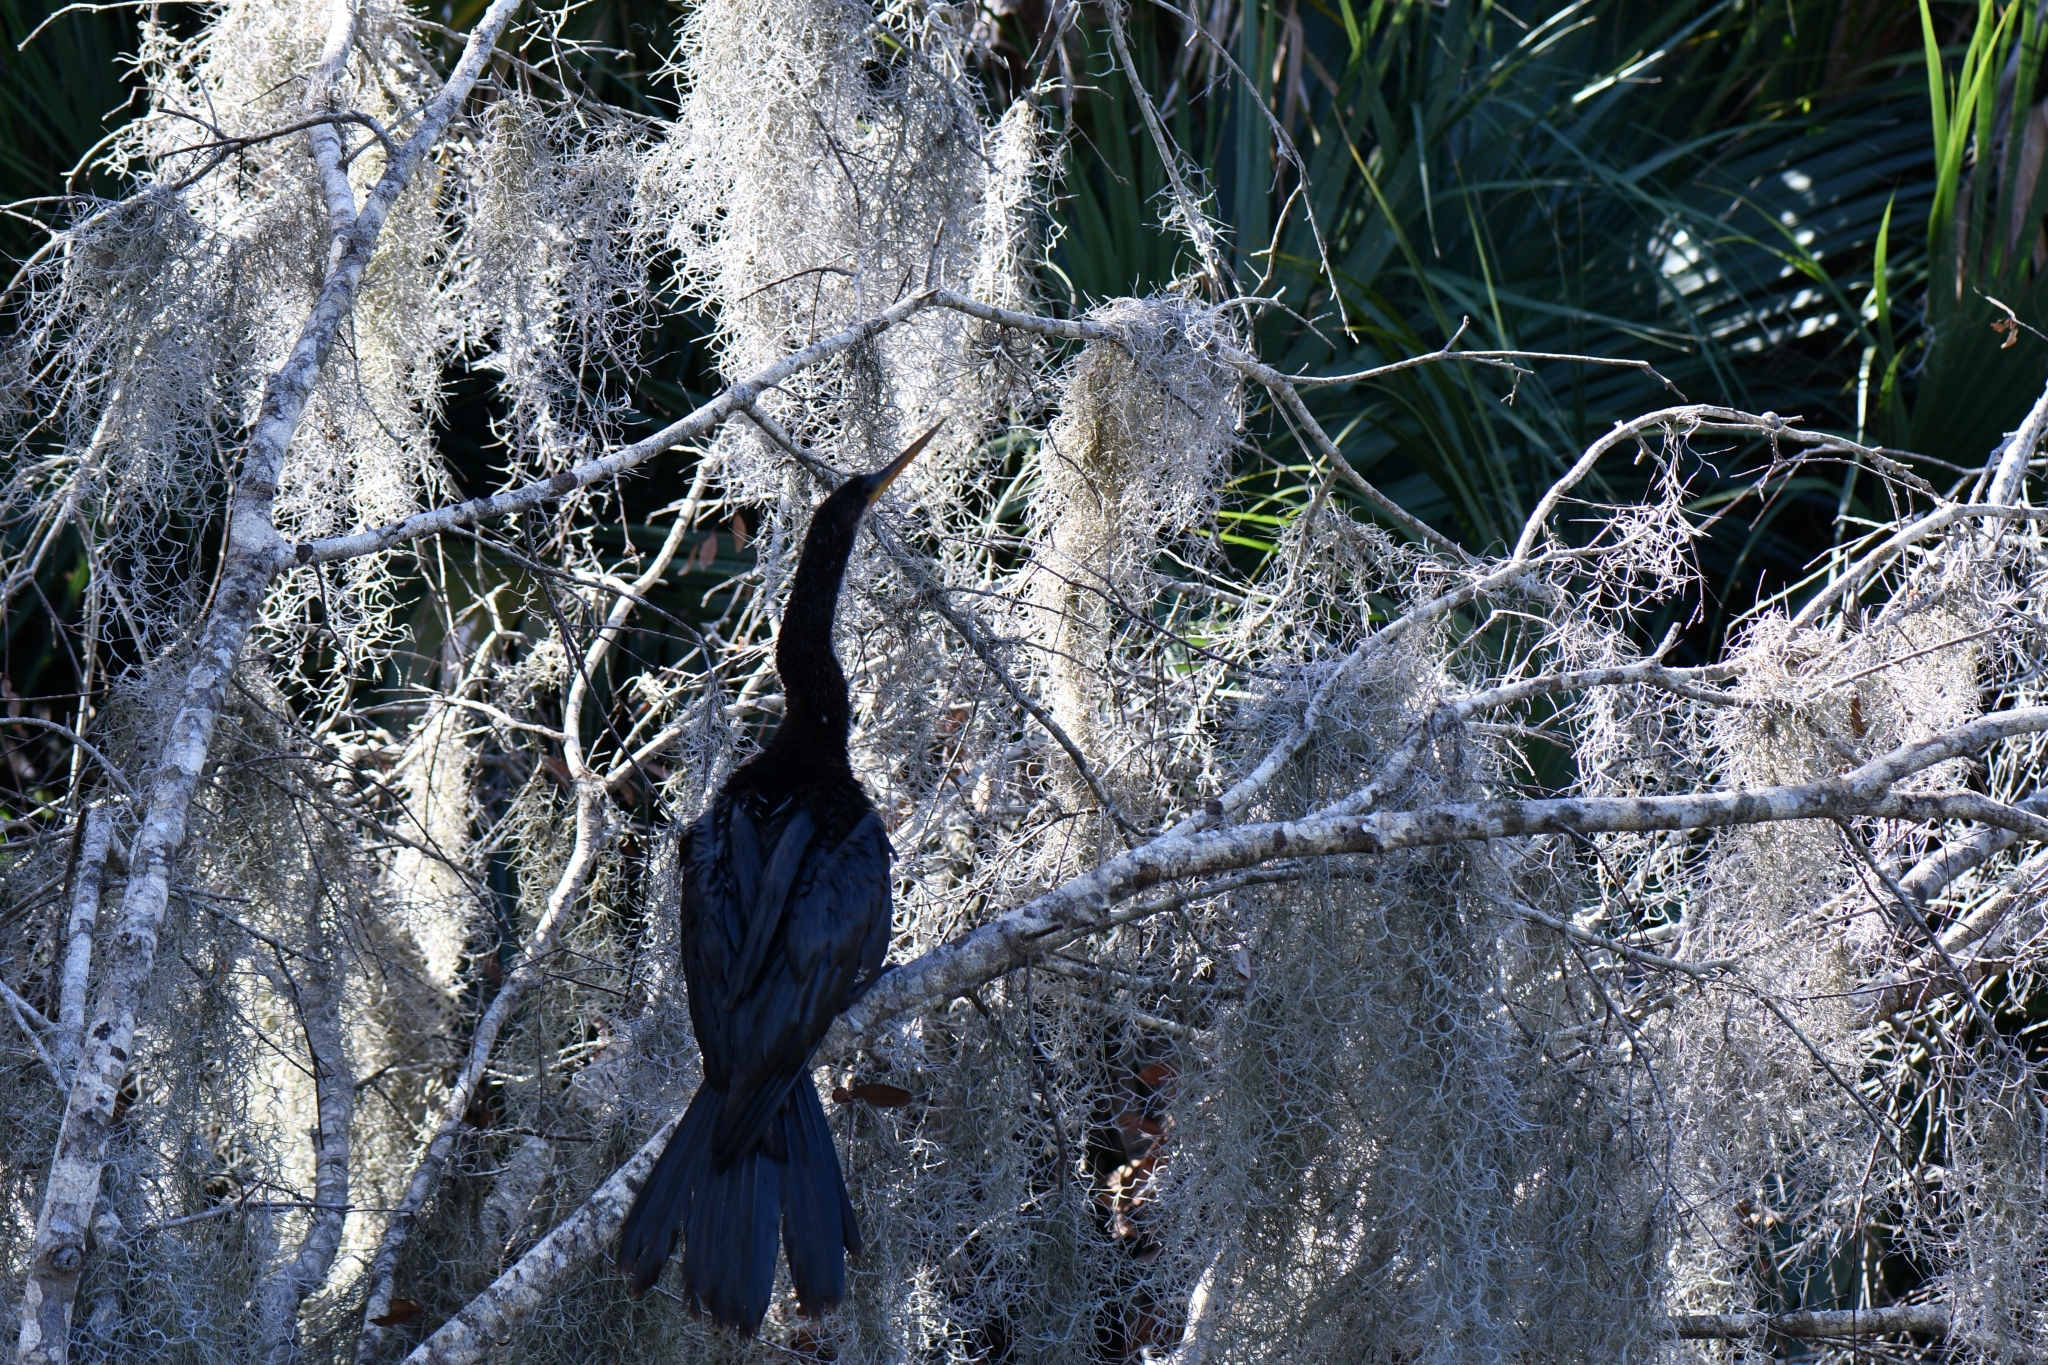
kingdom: Animalia
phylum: Chordata
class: Aves
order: Suliformes
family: Anhingidae
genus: Anhinga
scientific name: Anhinga anhinga
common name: Anhinga
